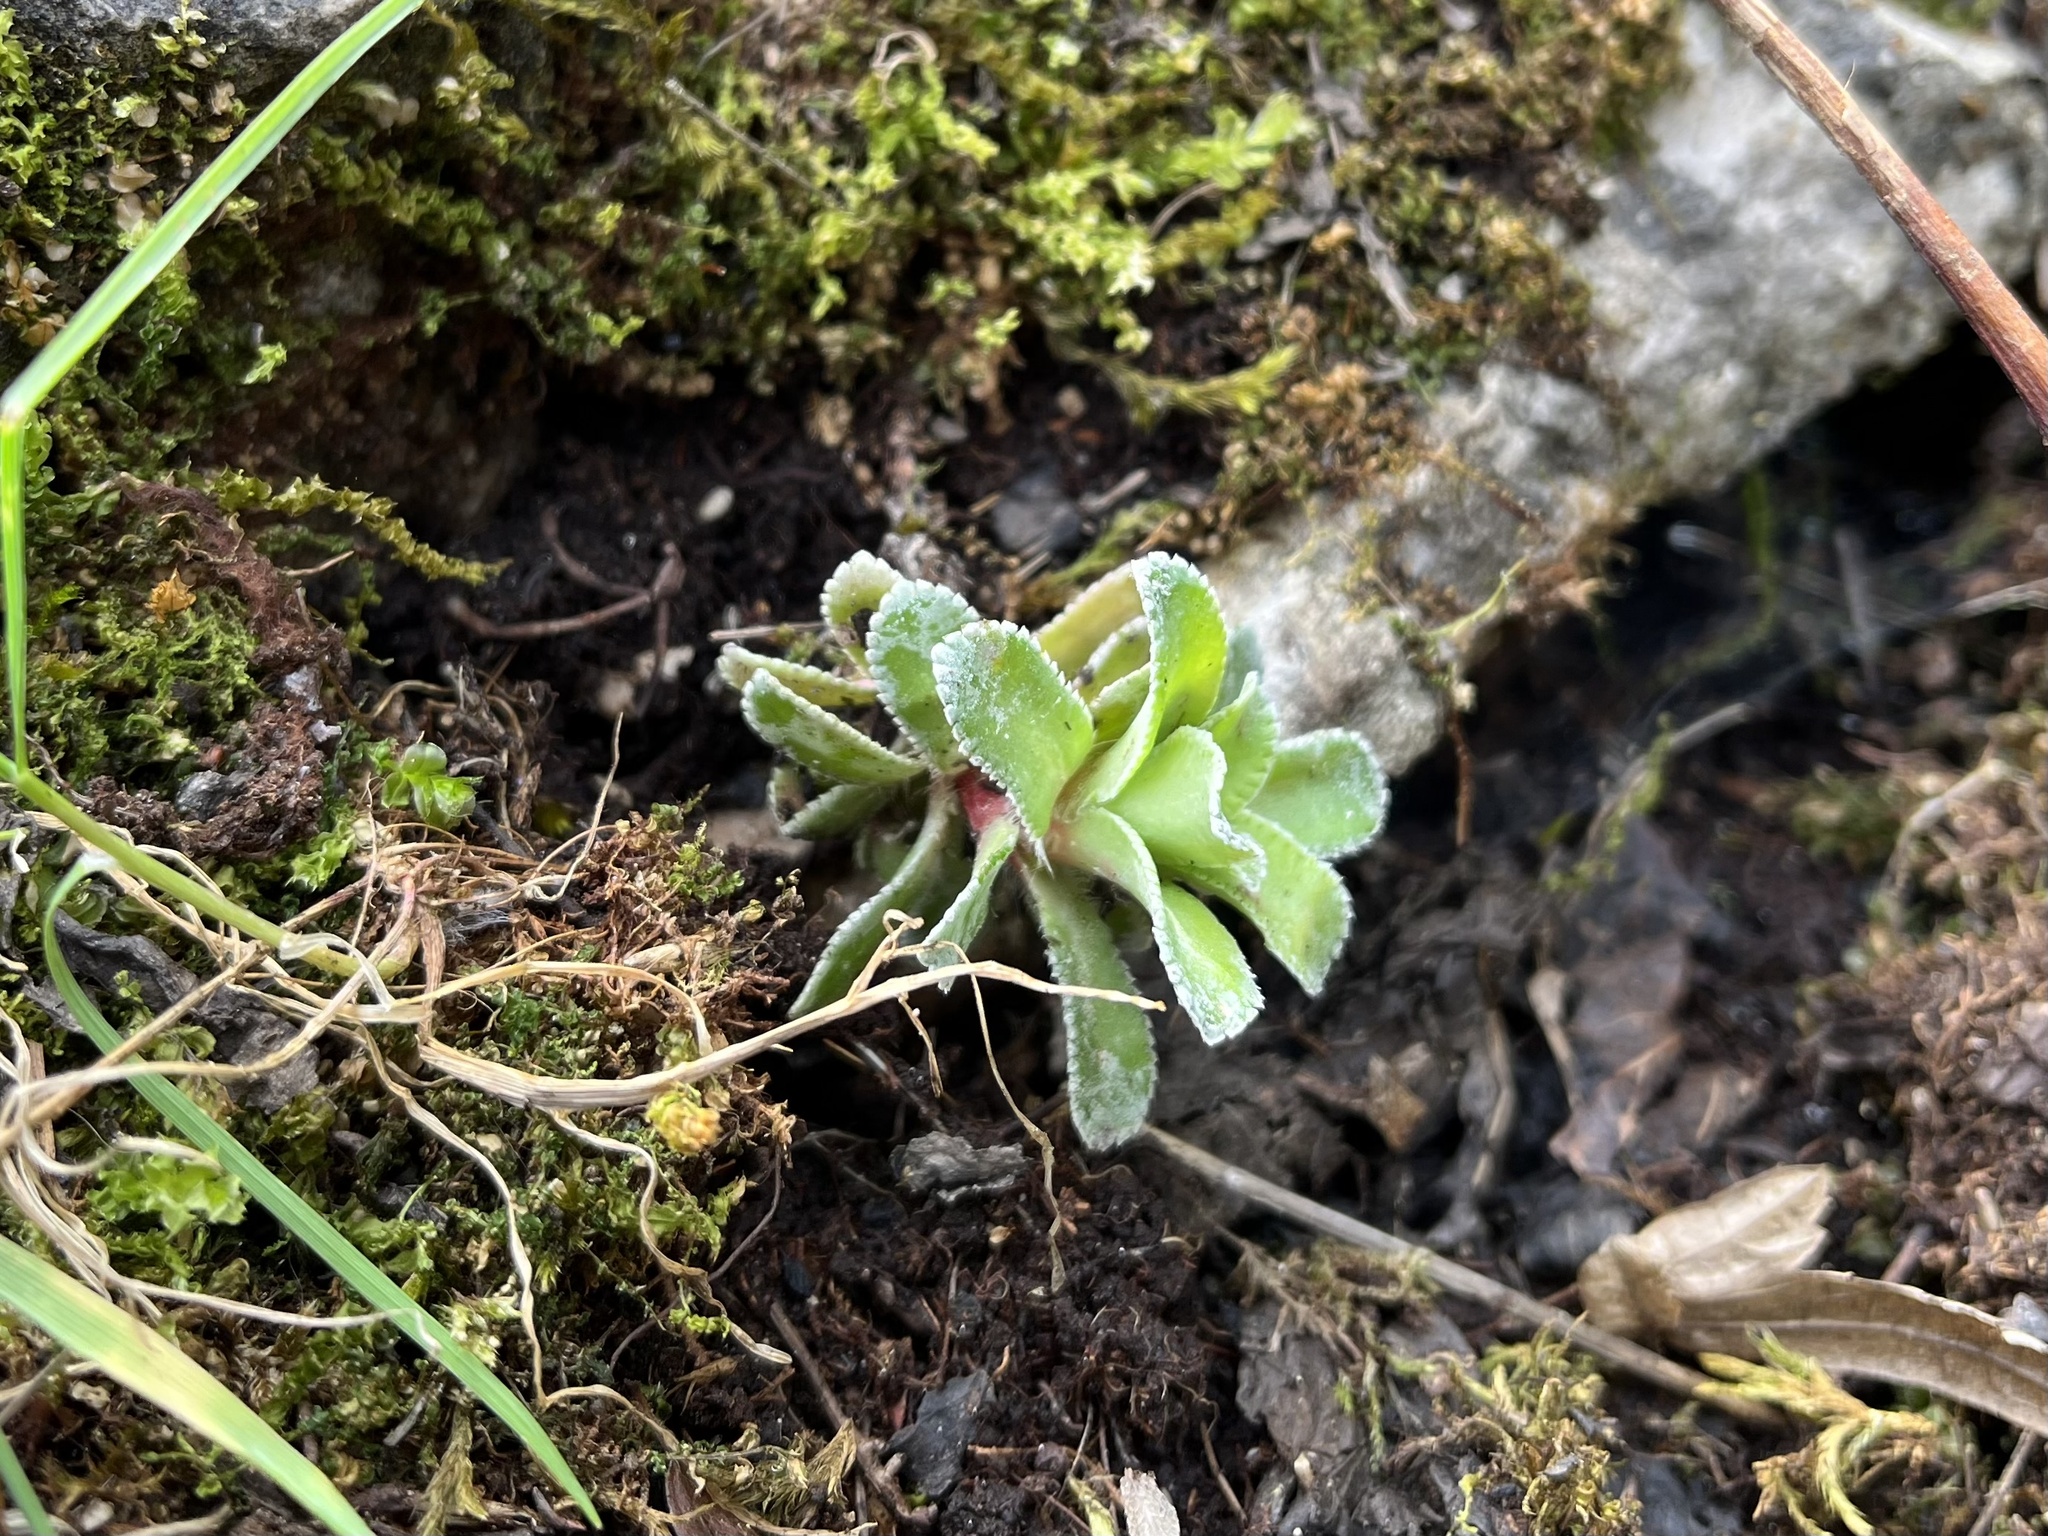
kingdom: Plantae
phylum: Tracheophyta
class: Magnoliopsida
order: Saxifragales
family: Saxifragaceae
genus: Saxifraga
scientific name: Saxifraga paniculata
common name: Livelong saxifrage
